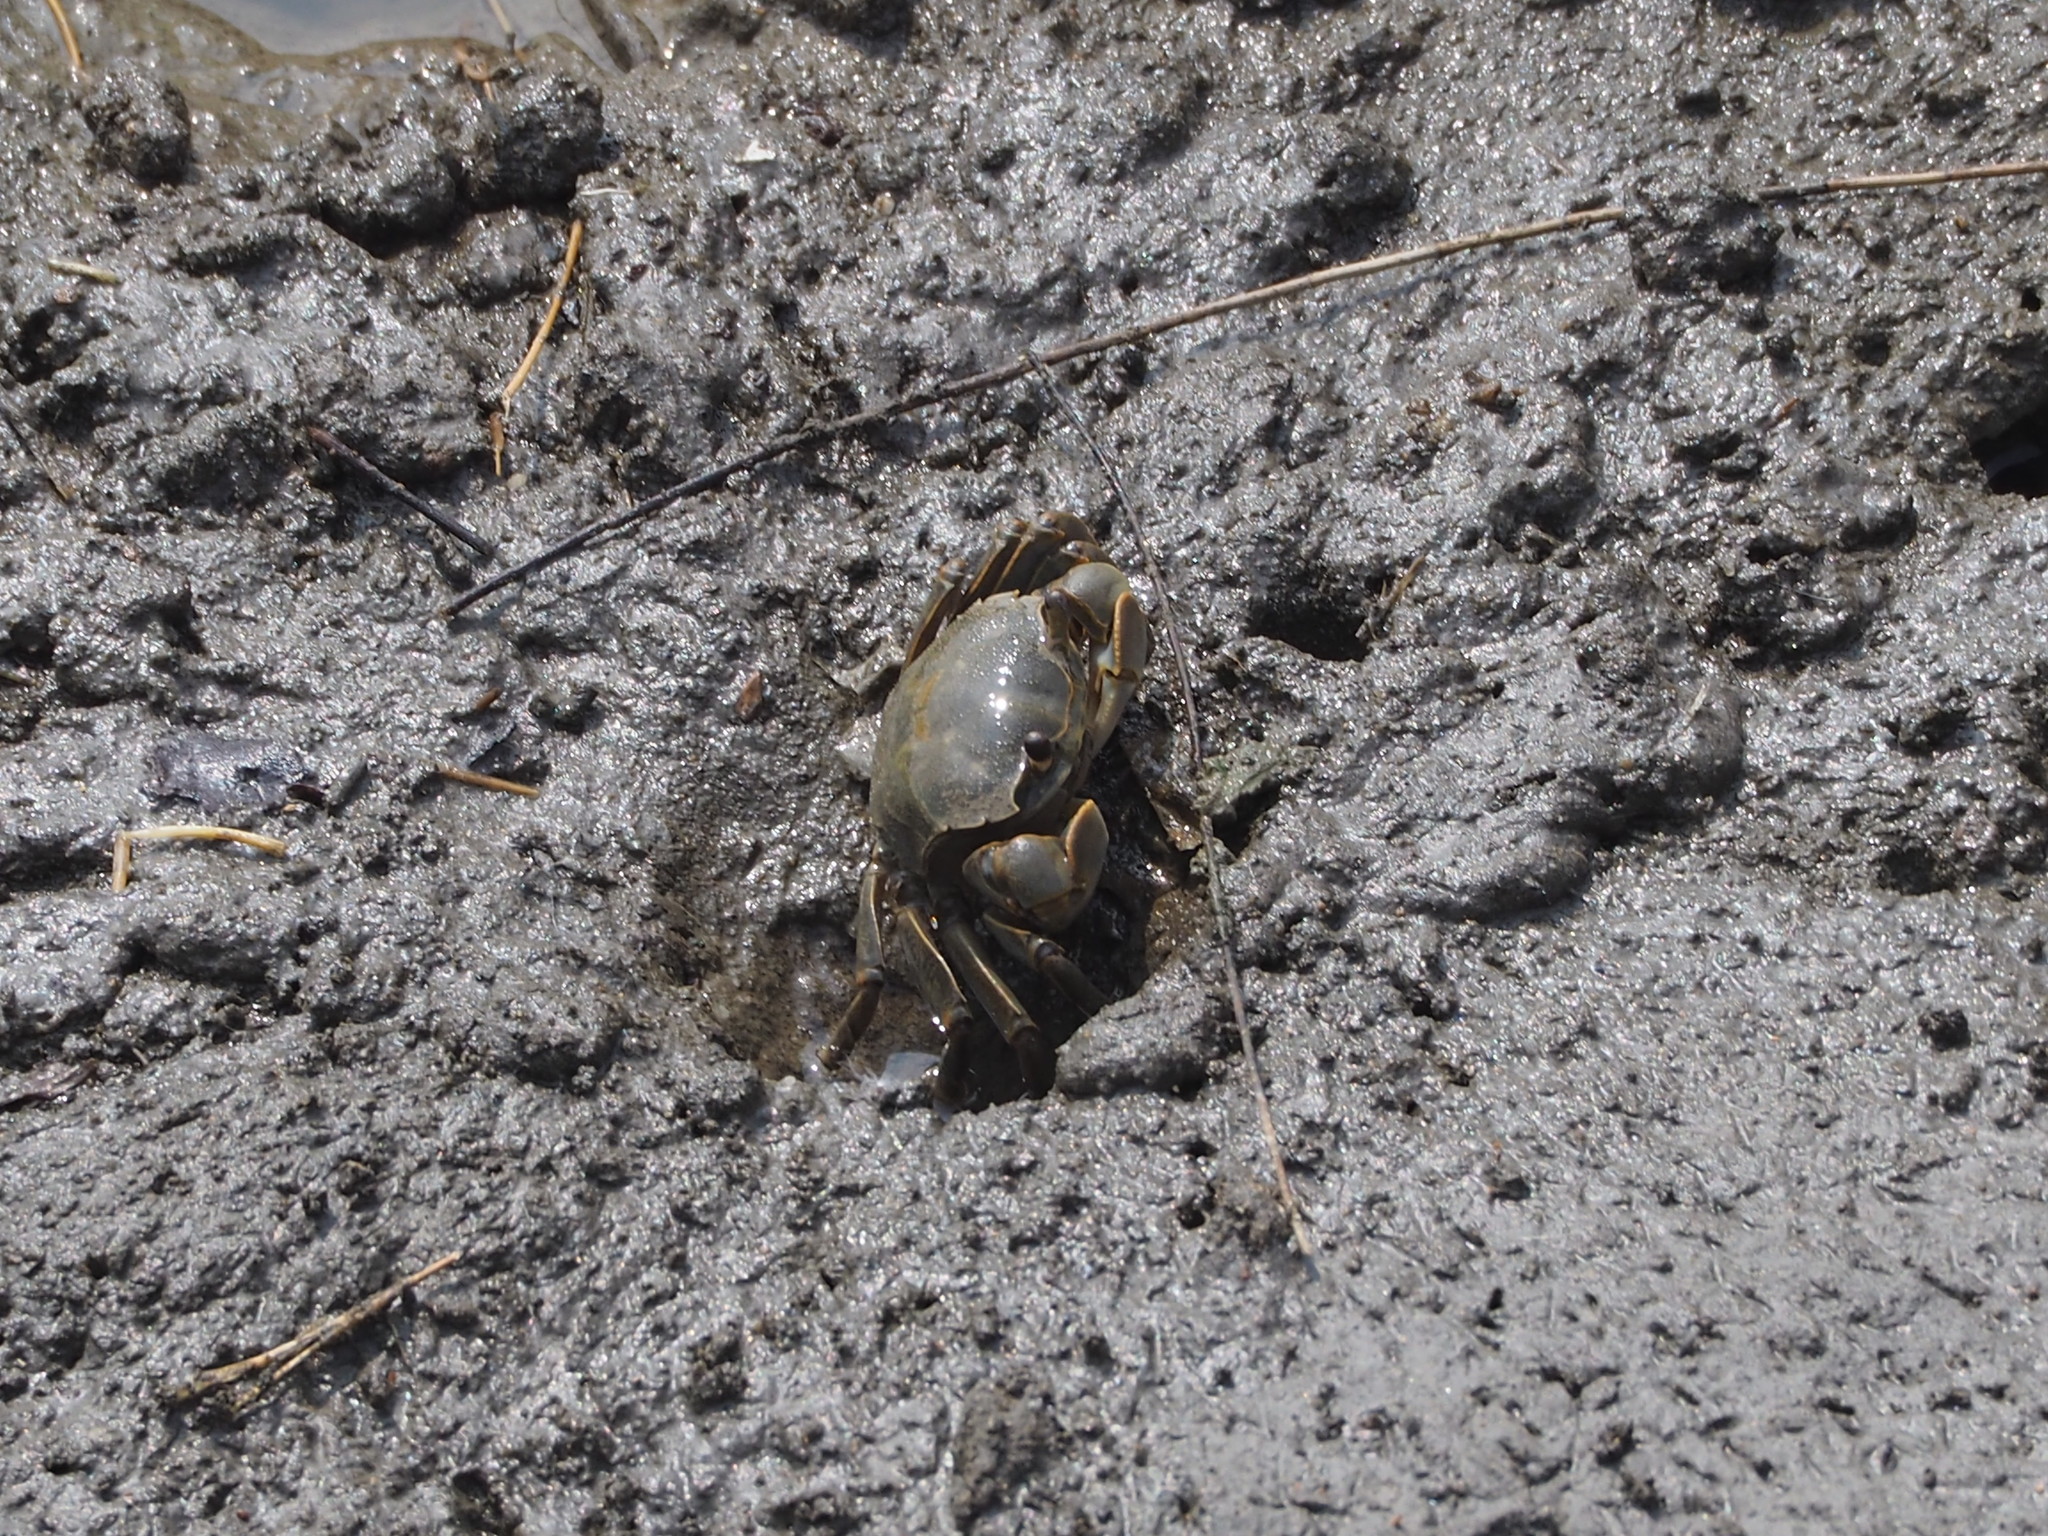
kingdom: Animalia
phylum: Arthropoda
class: Malacostraca
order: Decapoda
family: Varunidae
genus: Helice
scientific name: Helice formosensis
